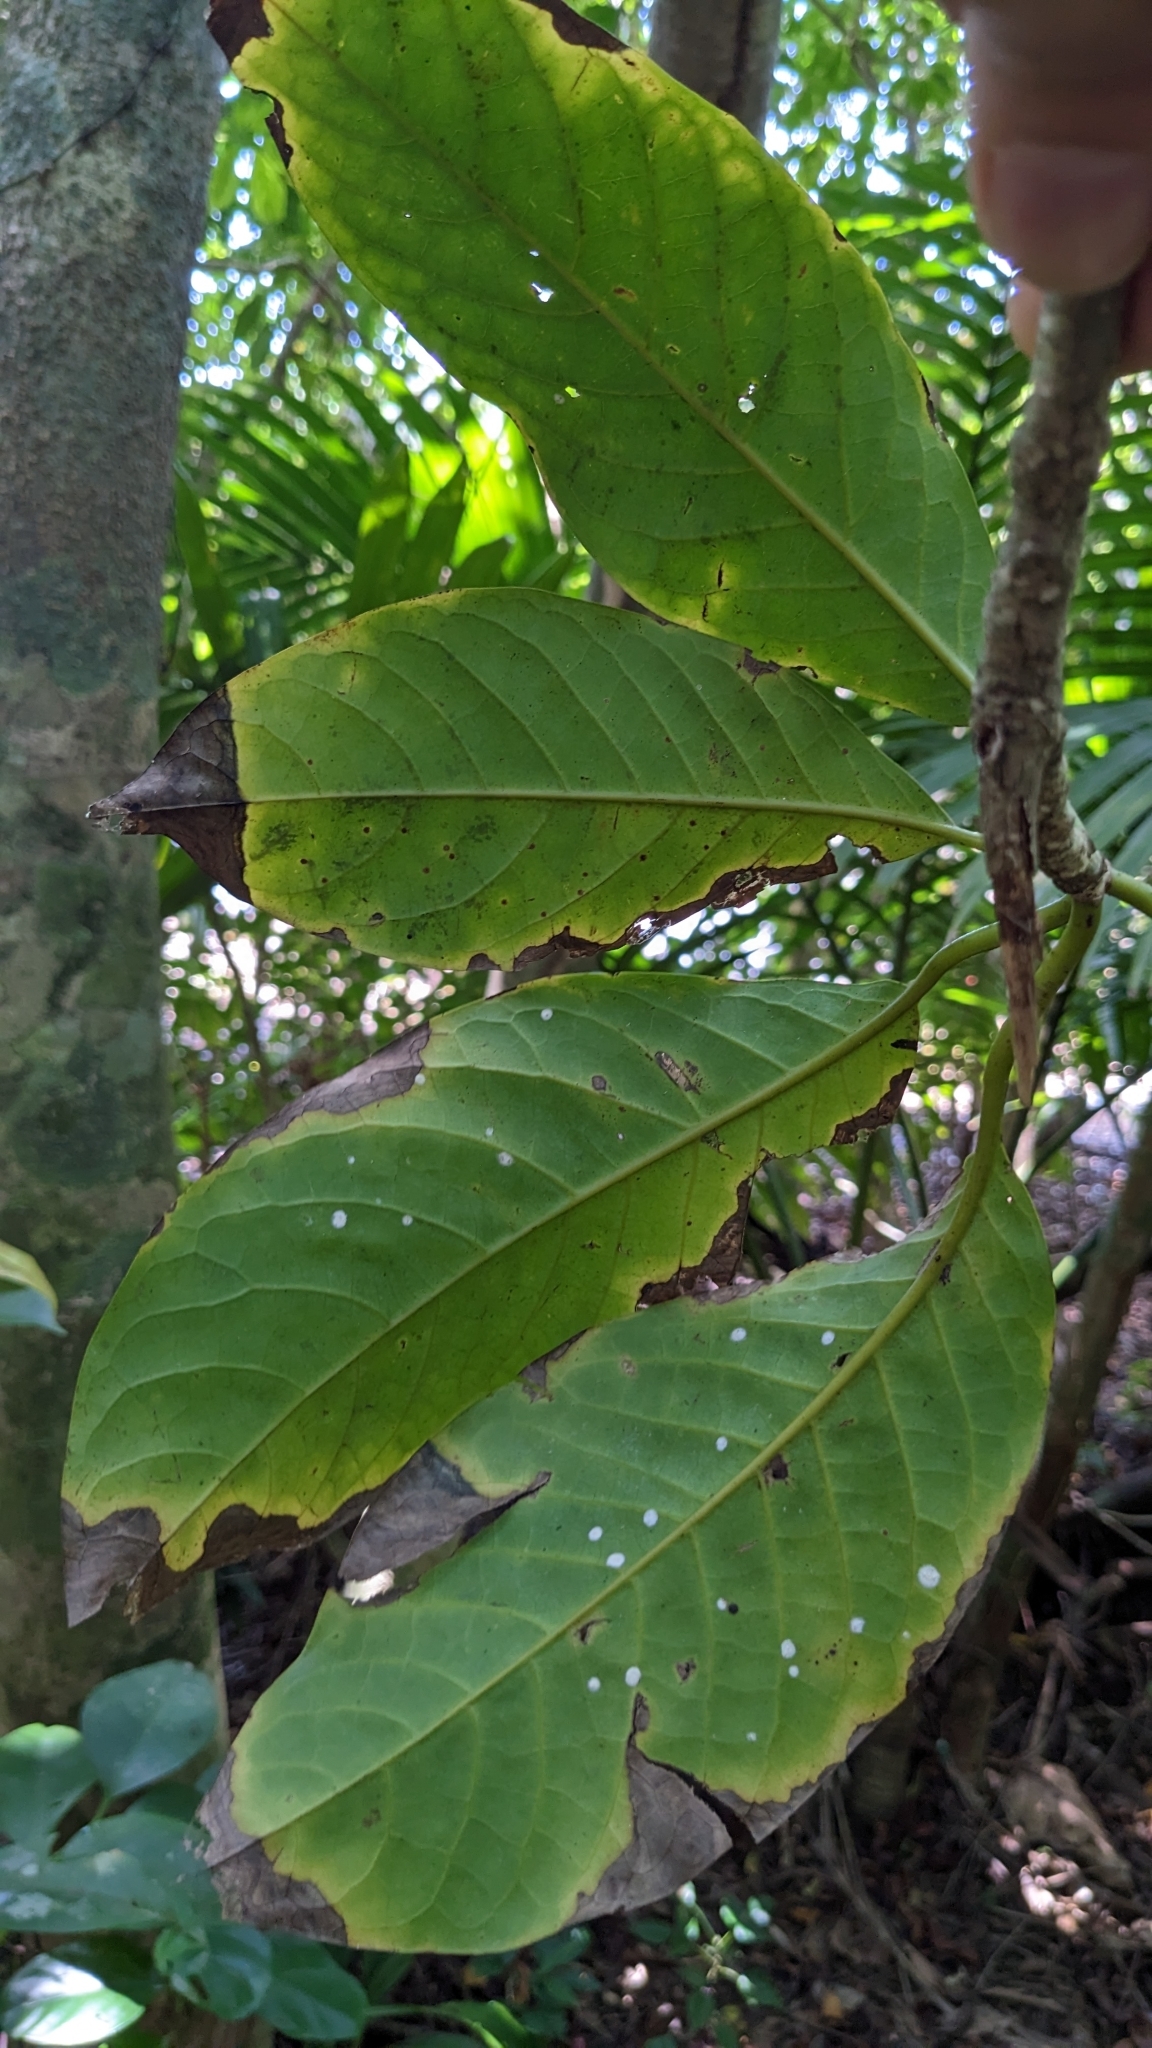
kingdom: Plantae
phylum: Tracheophyta
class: Magnoliopsida
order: Laurales
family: Lauraceae
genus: Dehaasia
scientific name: Dehaasia incrassata
